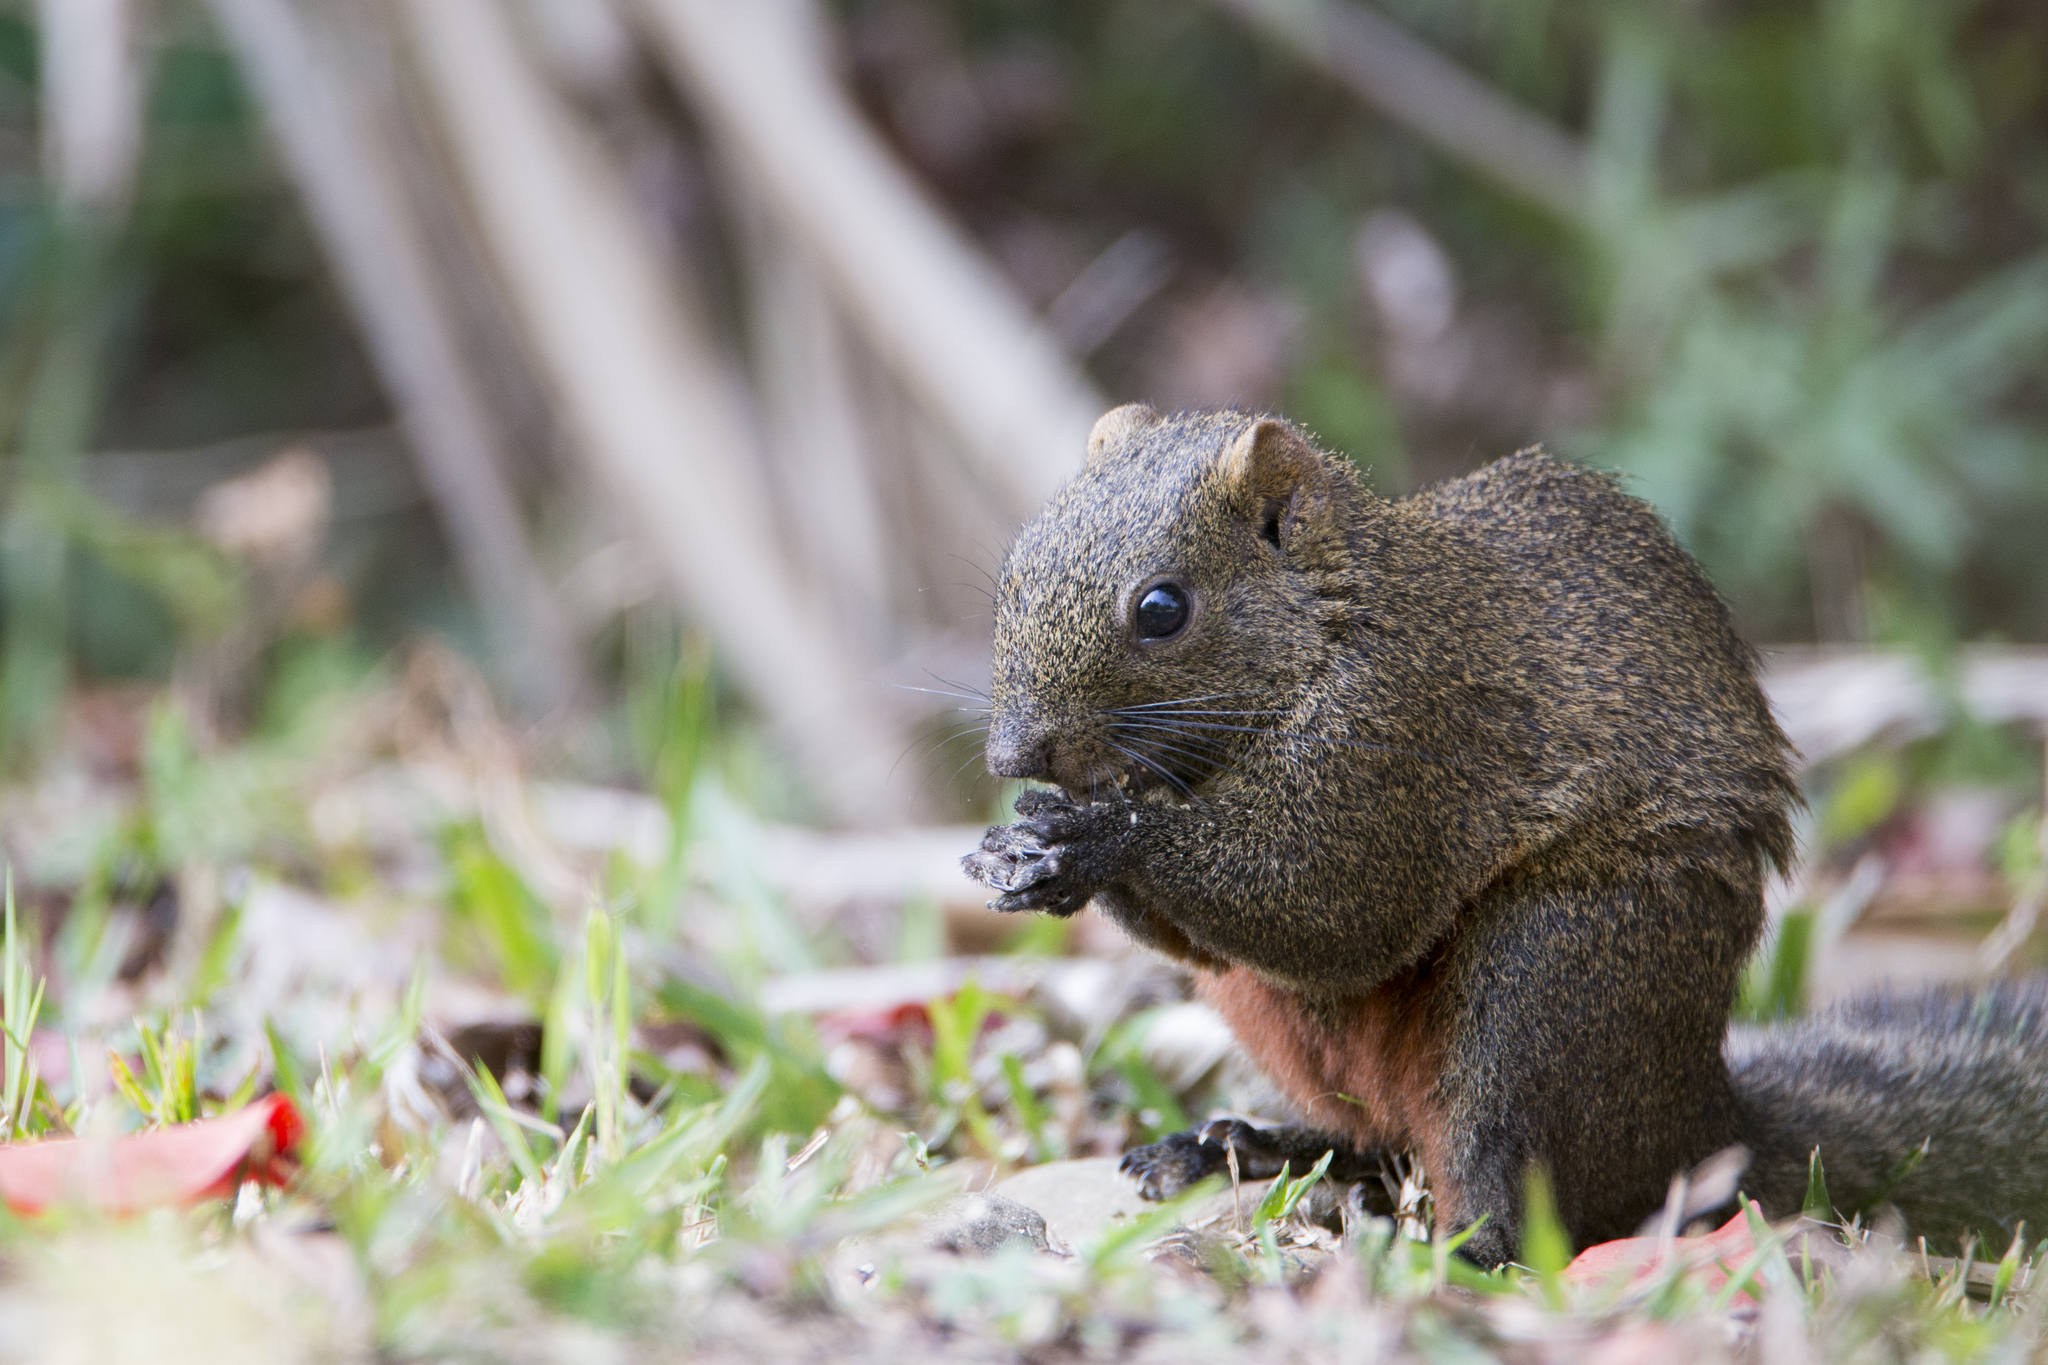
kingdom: Animalia
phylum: Chordata
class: Mammalia
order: Rodentia
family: Sciuridae
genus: Callosciurus
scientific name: Callosciurus erythraeus
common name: Pallas's squirrel
